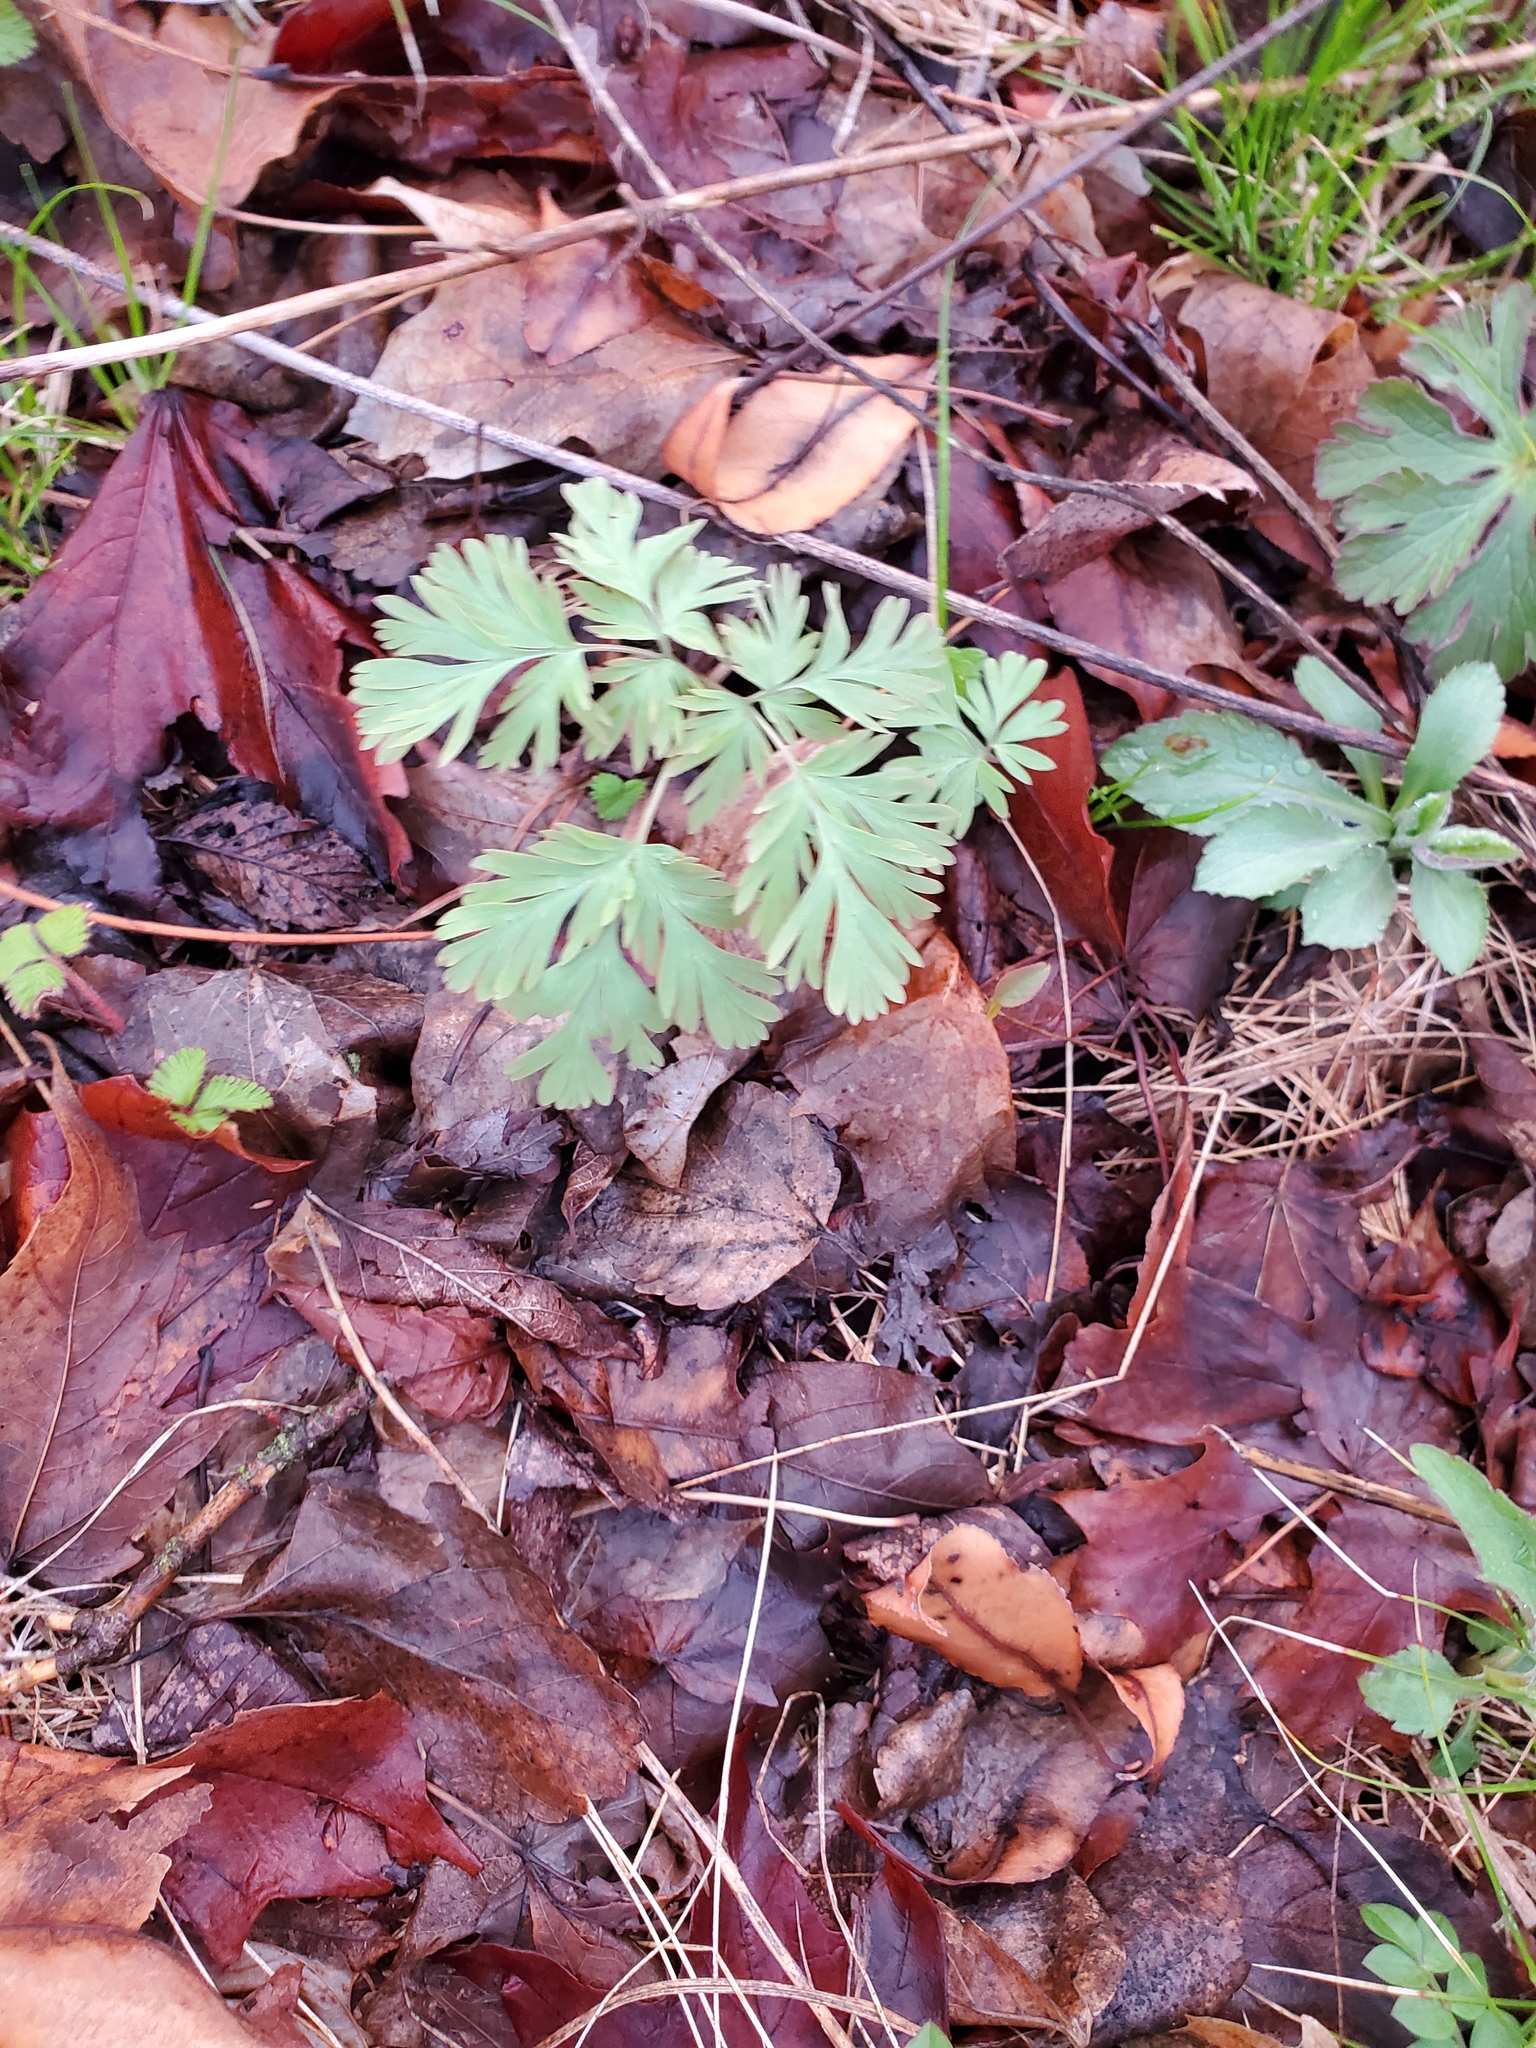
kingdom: Plantae
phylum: Tracheophyta
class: Magnoliopsida
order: Ranunculales
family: Papaveraceae
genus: Dicentra
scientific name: Dicentra cucullaria
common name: Dutchman's breeches
